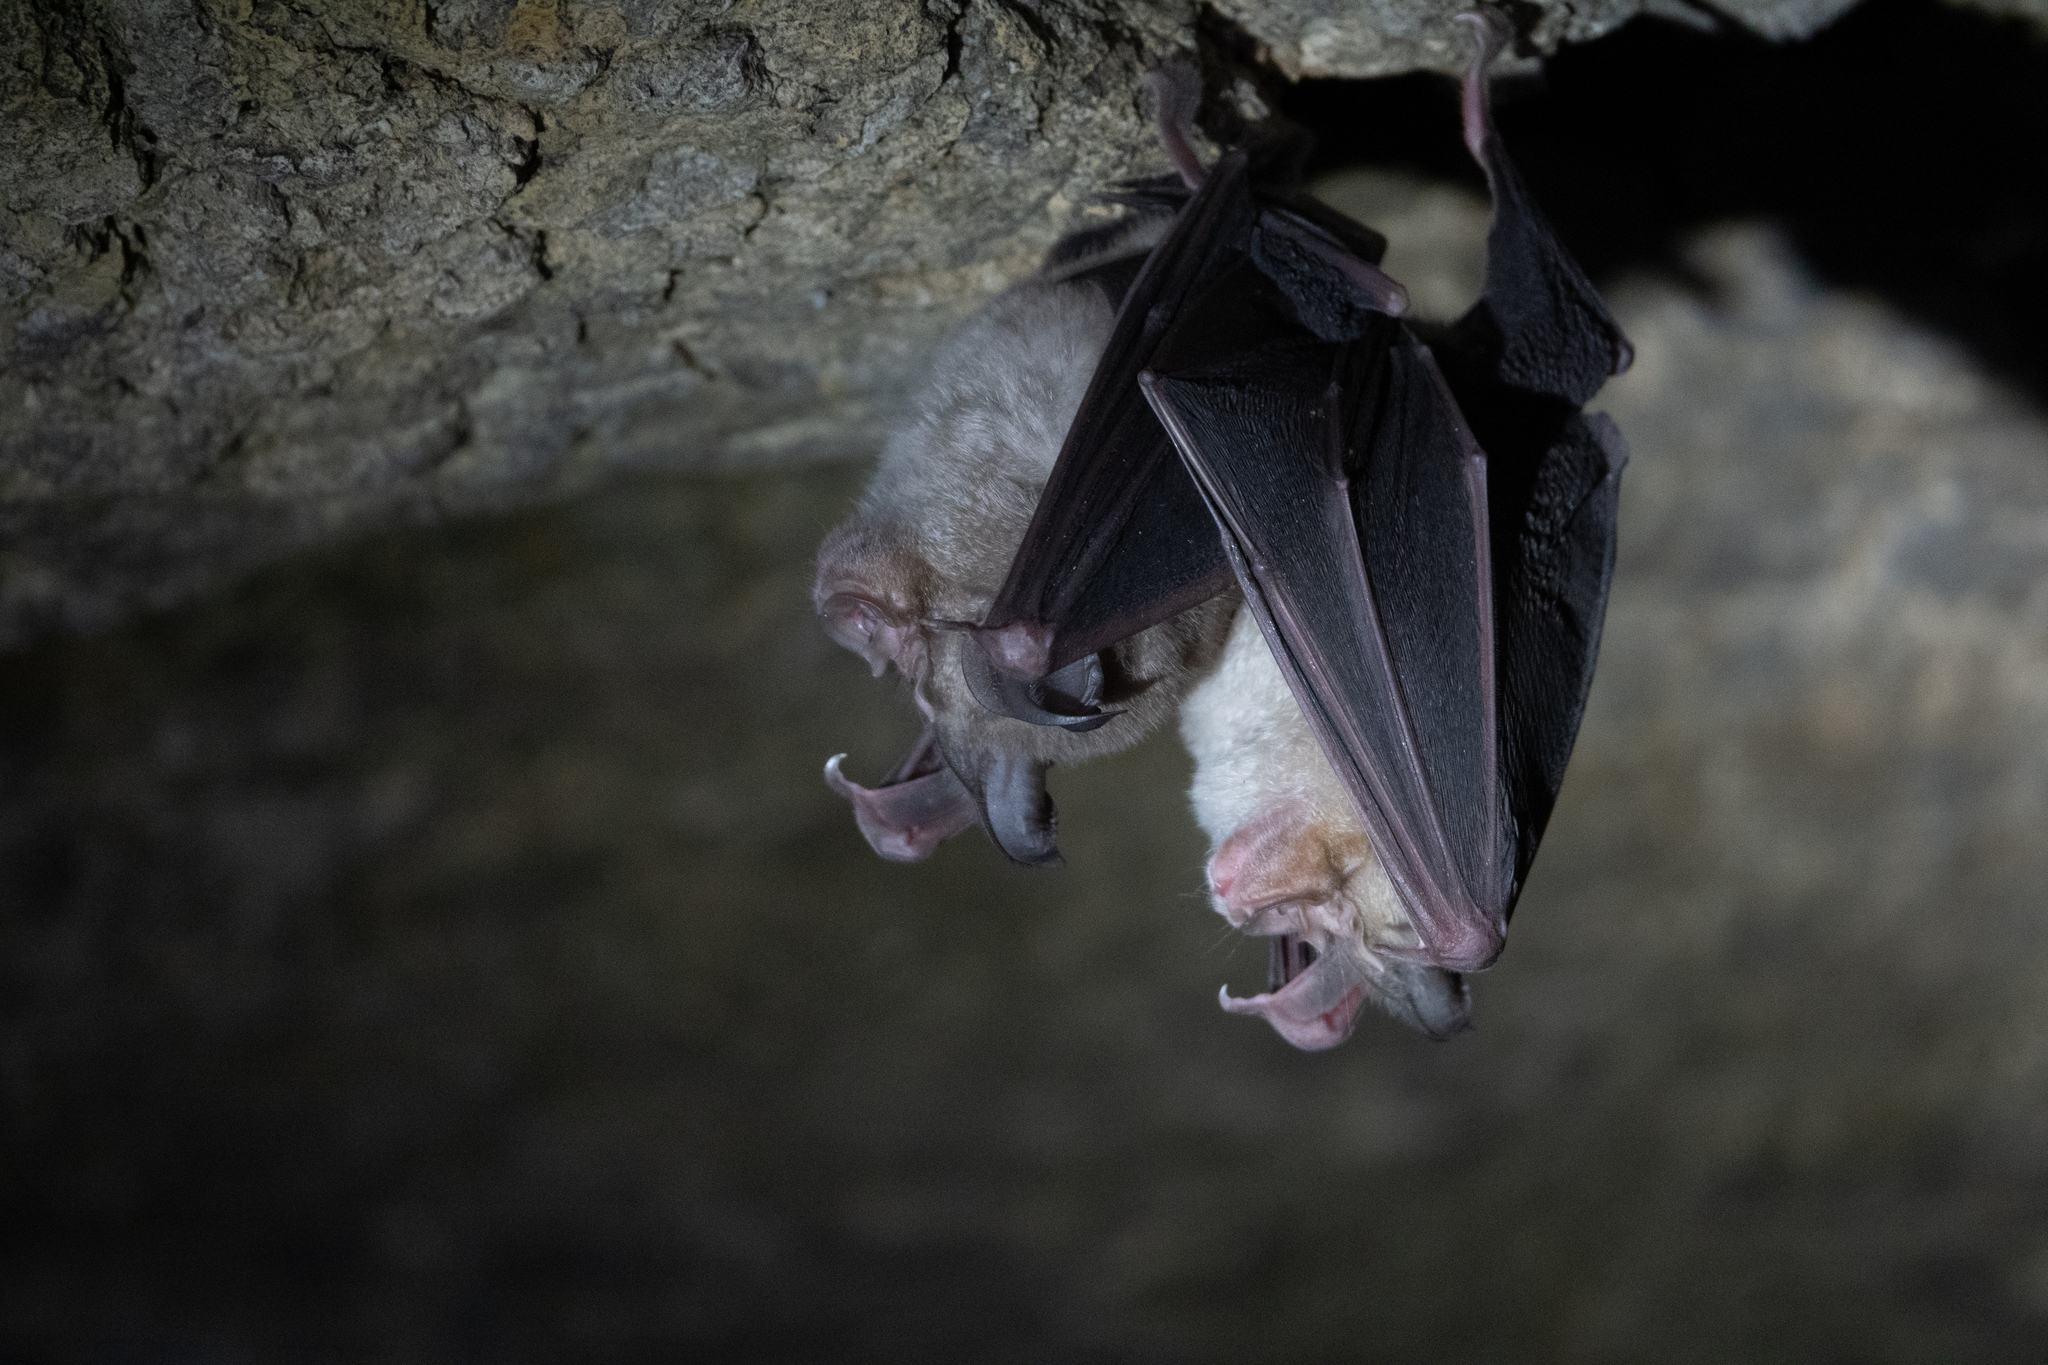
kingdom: Animalia
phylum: Chordata
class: Mammalia
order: Chiroptera
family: Rhinolophidae
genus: Rhinolophus
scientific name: Rhinolophus ferrumequinum
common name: Greater horseshoe bat
